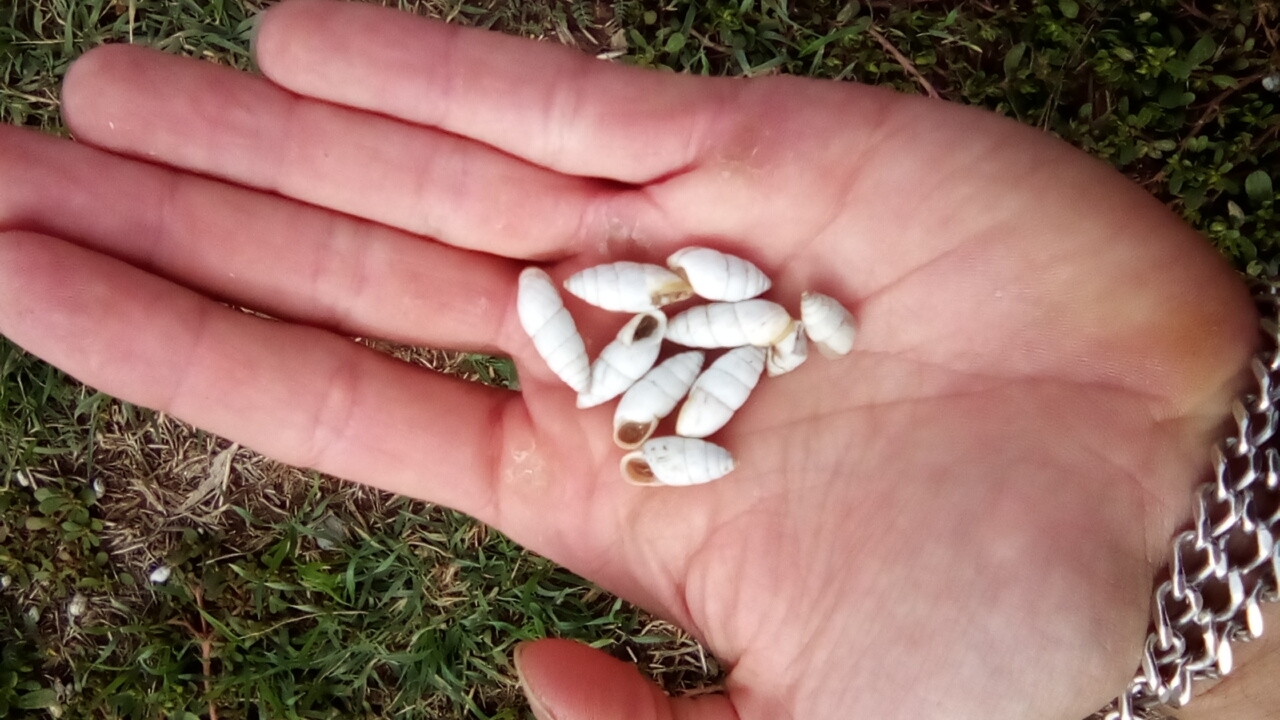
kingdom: Animalia
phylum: Mollusca
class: Gastropoda
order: Stylommatophora
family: Enidae
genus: Brephulopsis
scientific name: Brephulopsis cylindrica
